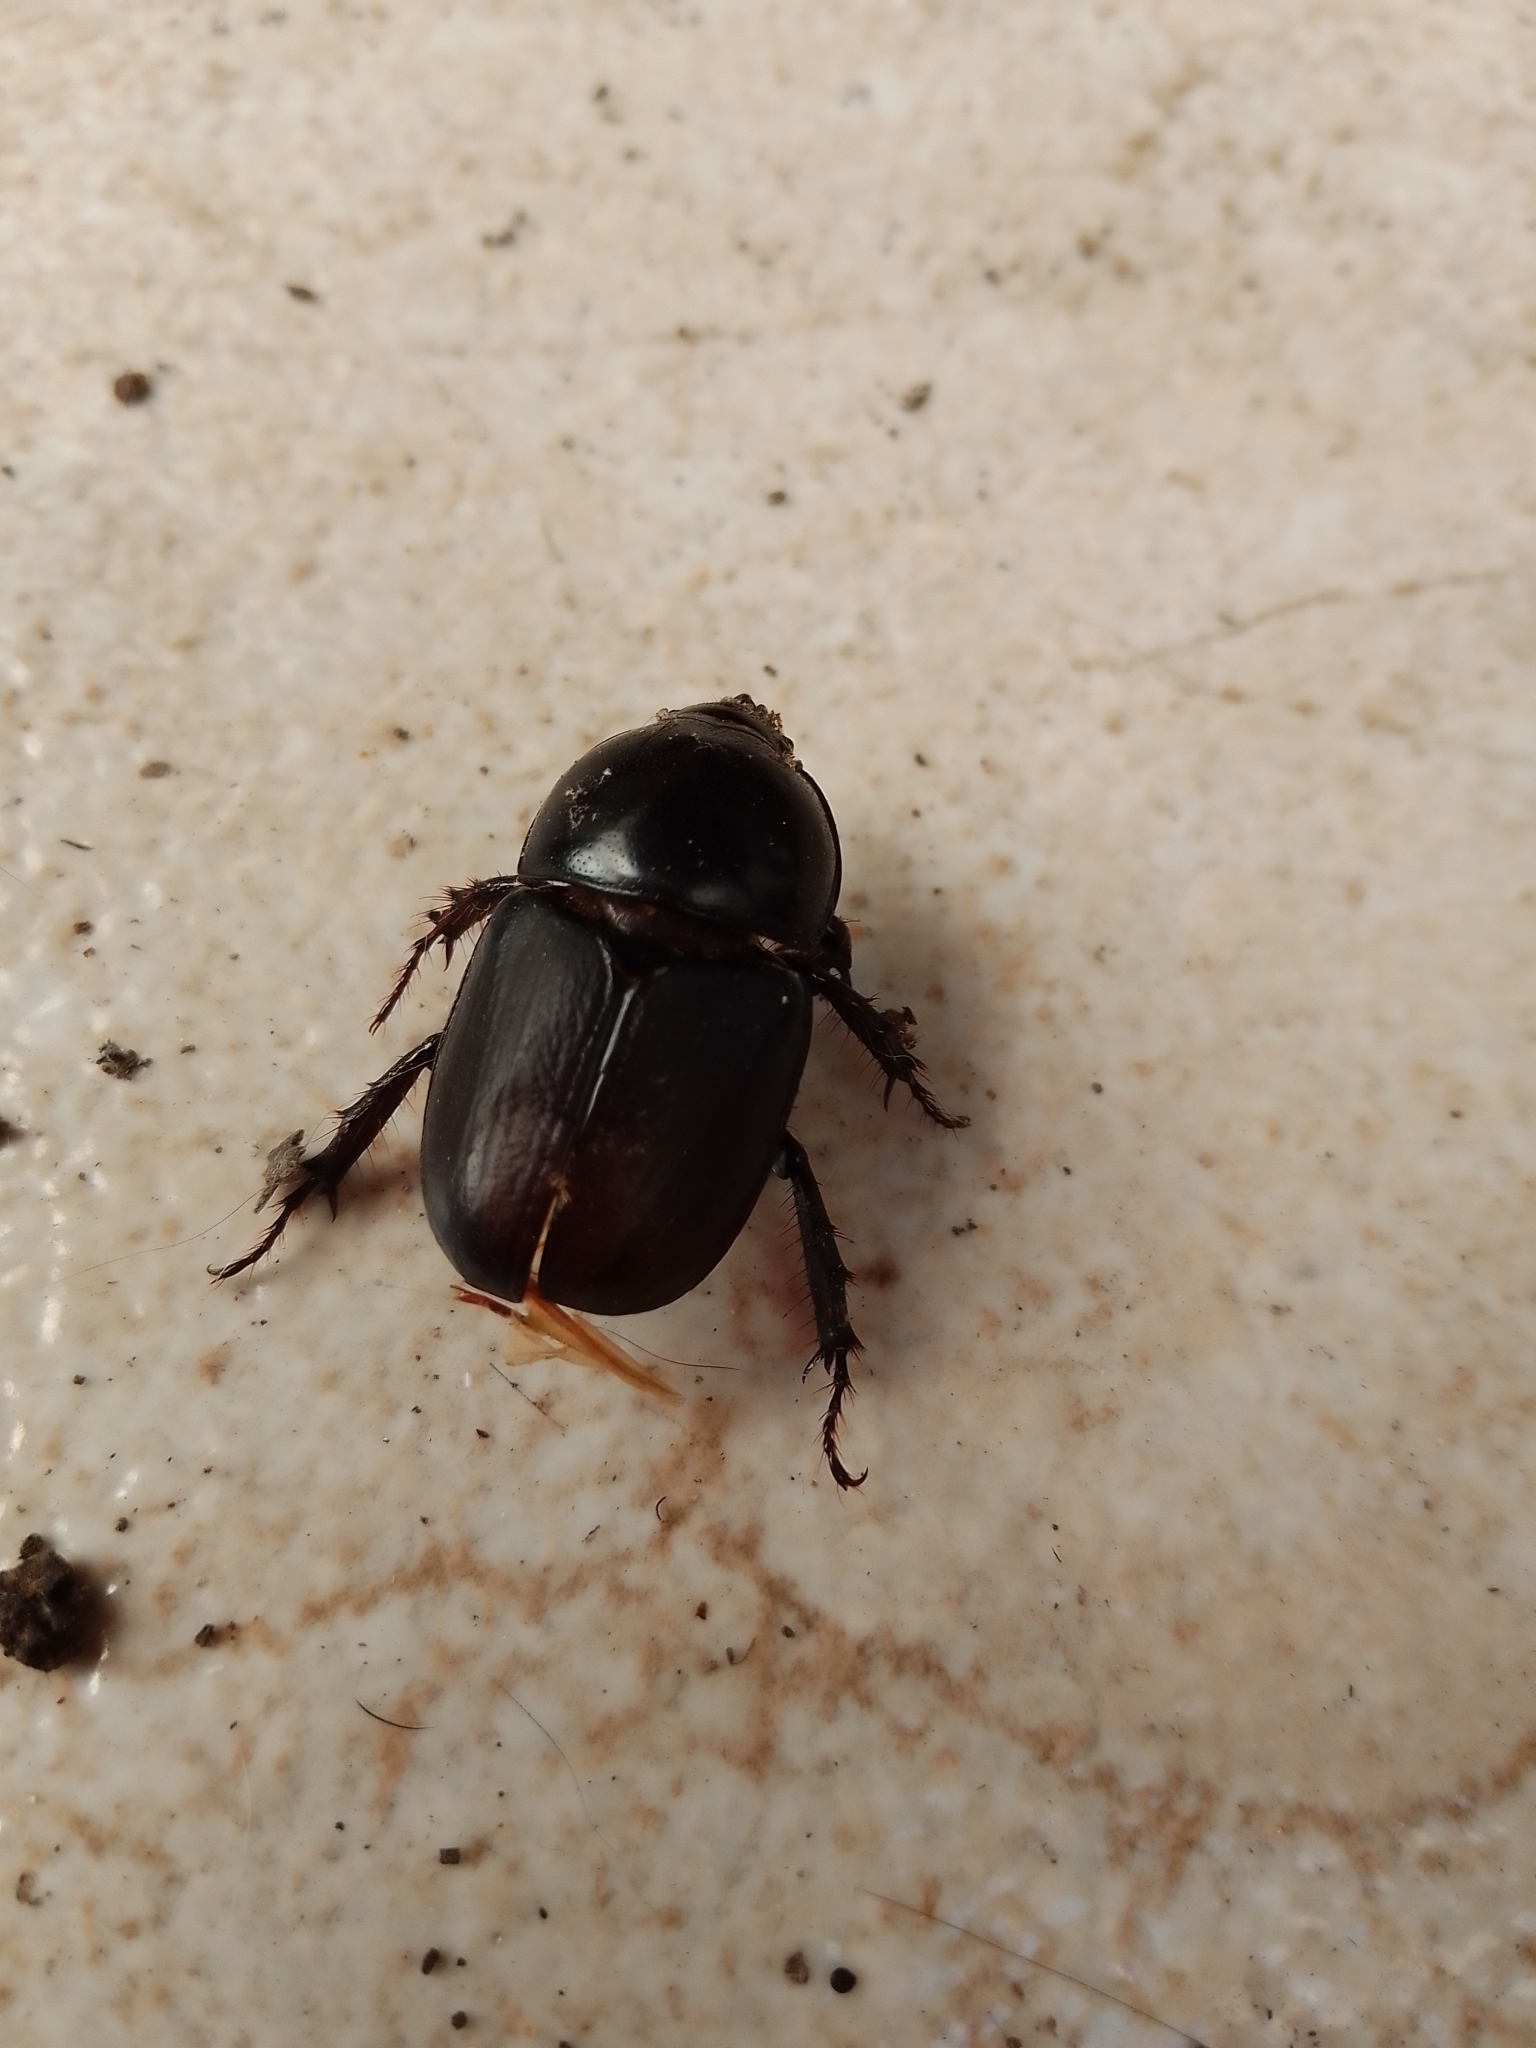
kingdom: Animalia
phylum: Arthropoda
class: Insecta
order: Coleoptera
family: Scarabaeidae
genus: Diloboderus
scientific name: Diloboderus abderus
